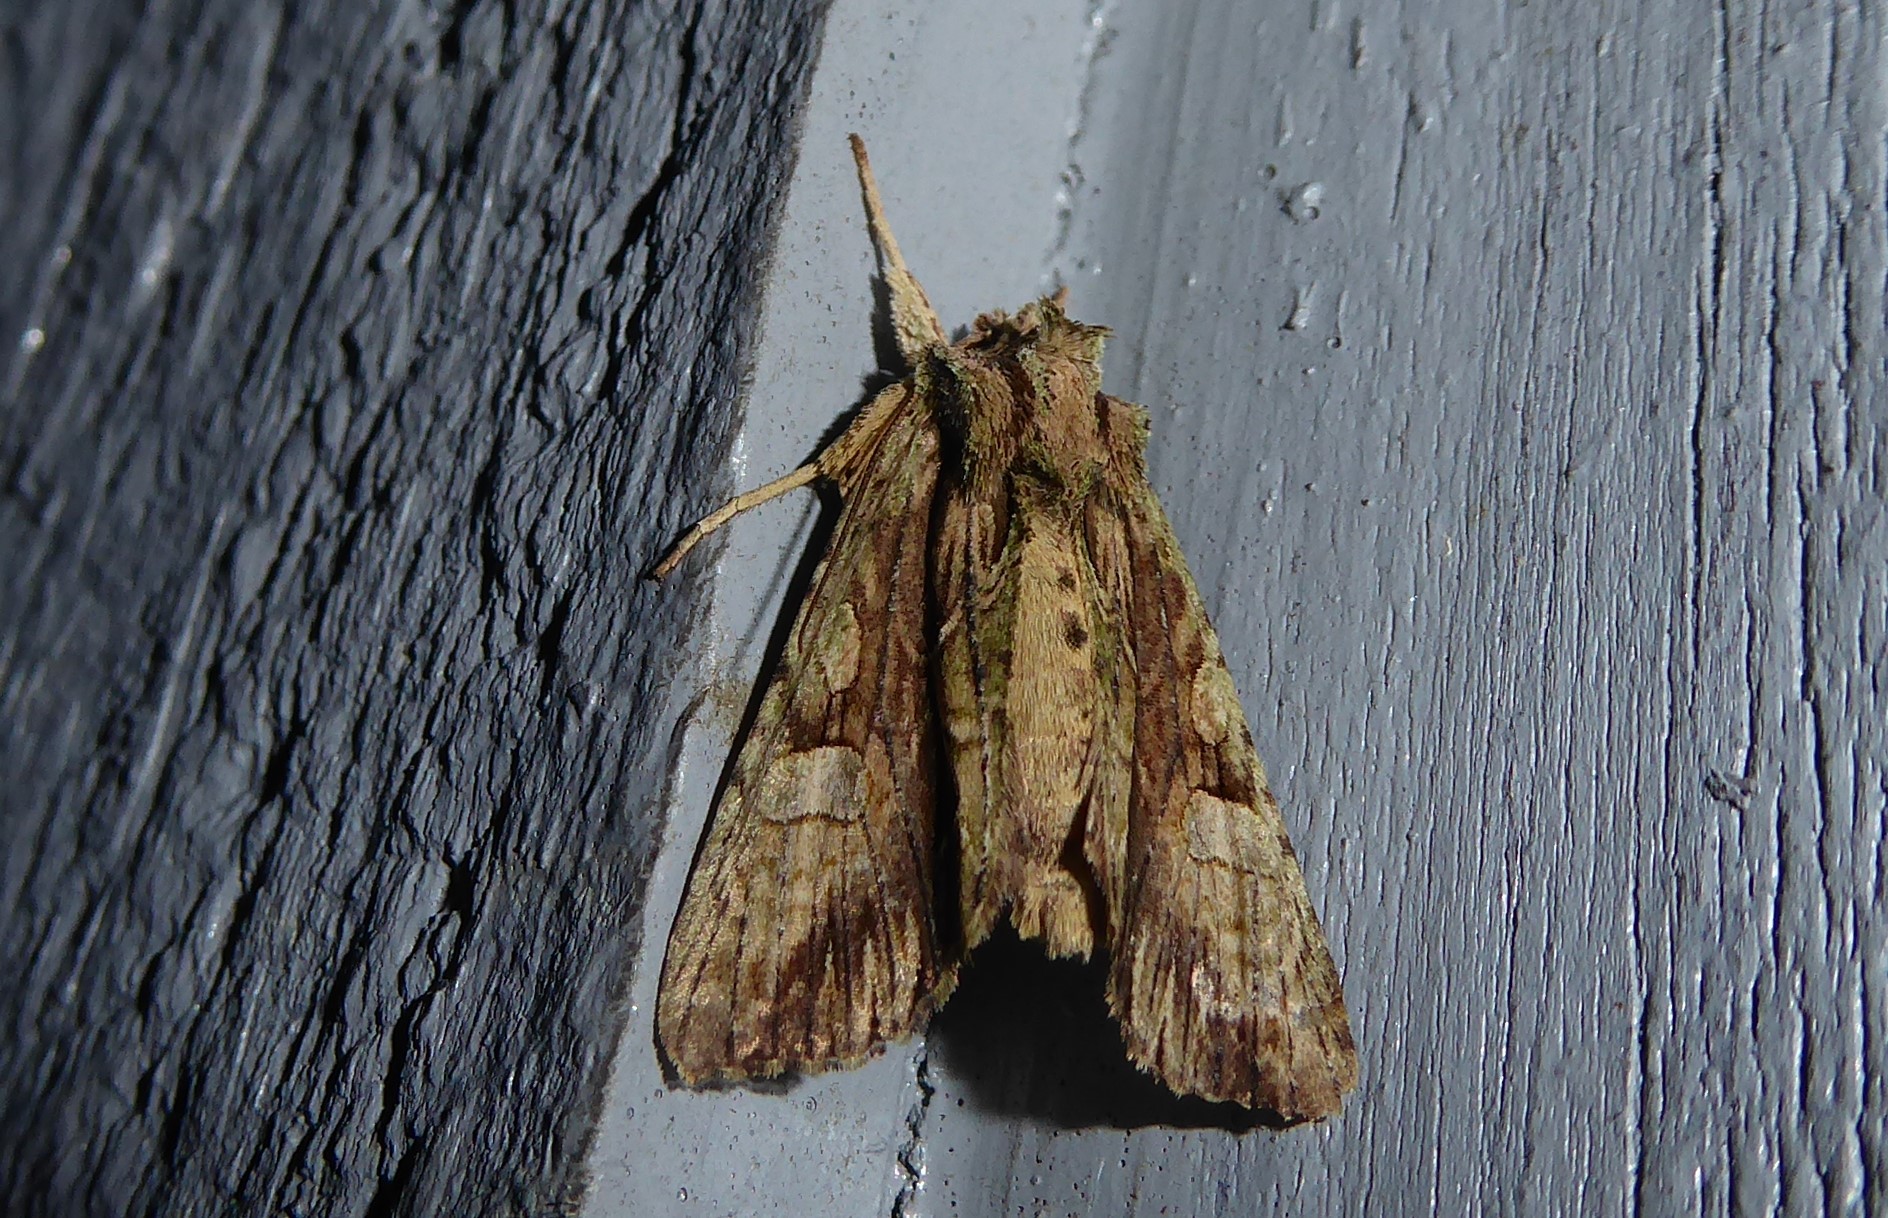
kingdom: Animalia
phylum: Arthropoda
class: Insecta
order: Lepidoptera
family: Noctuidae
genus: Meterana
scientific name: Meterana decorata
